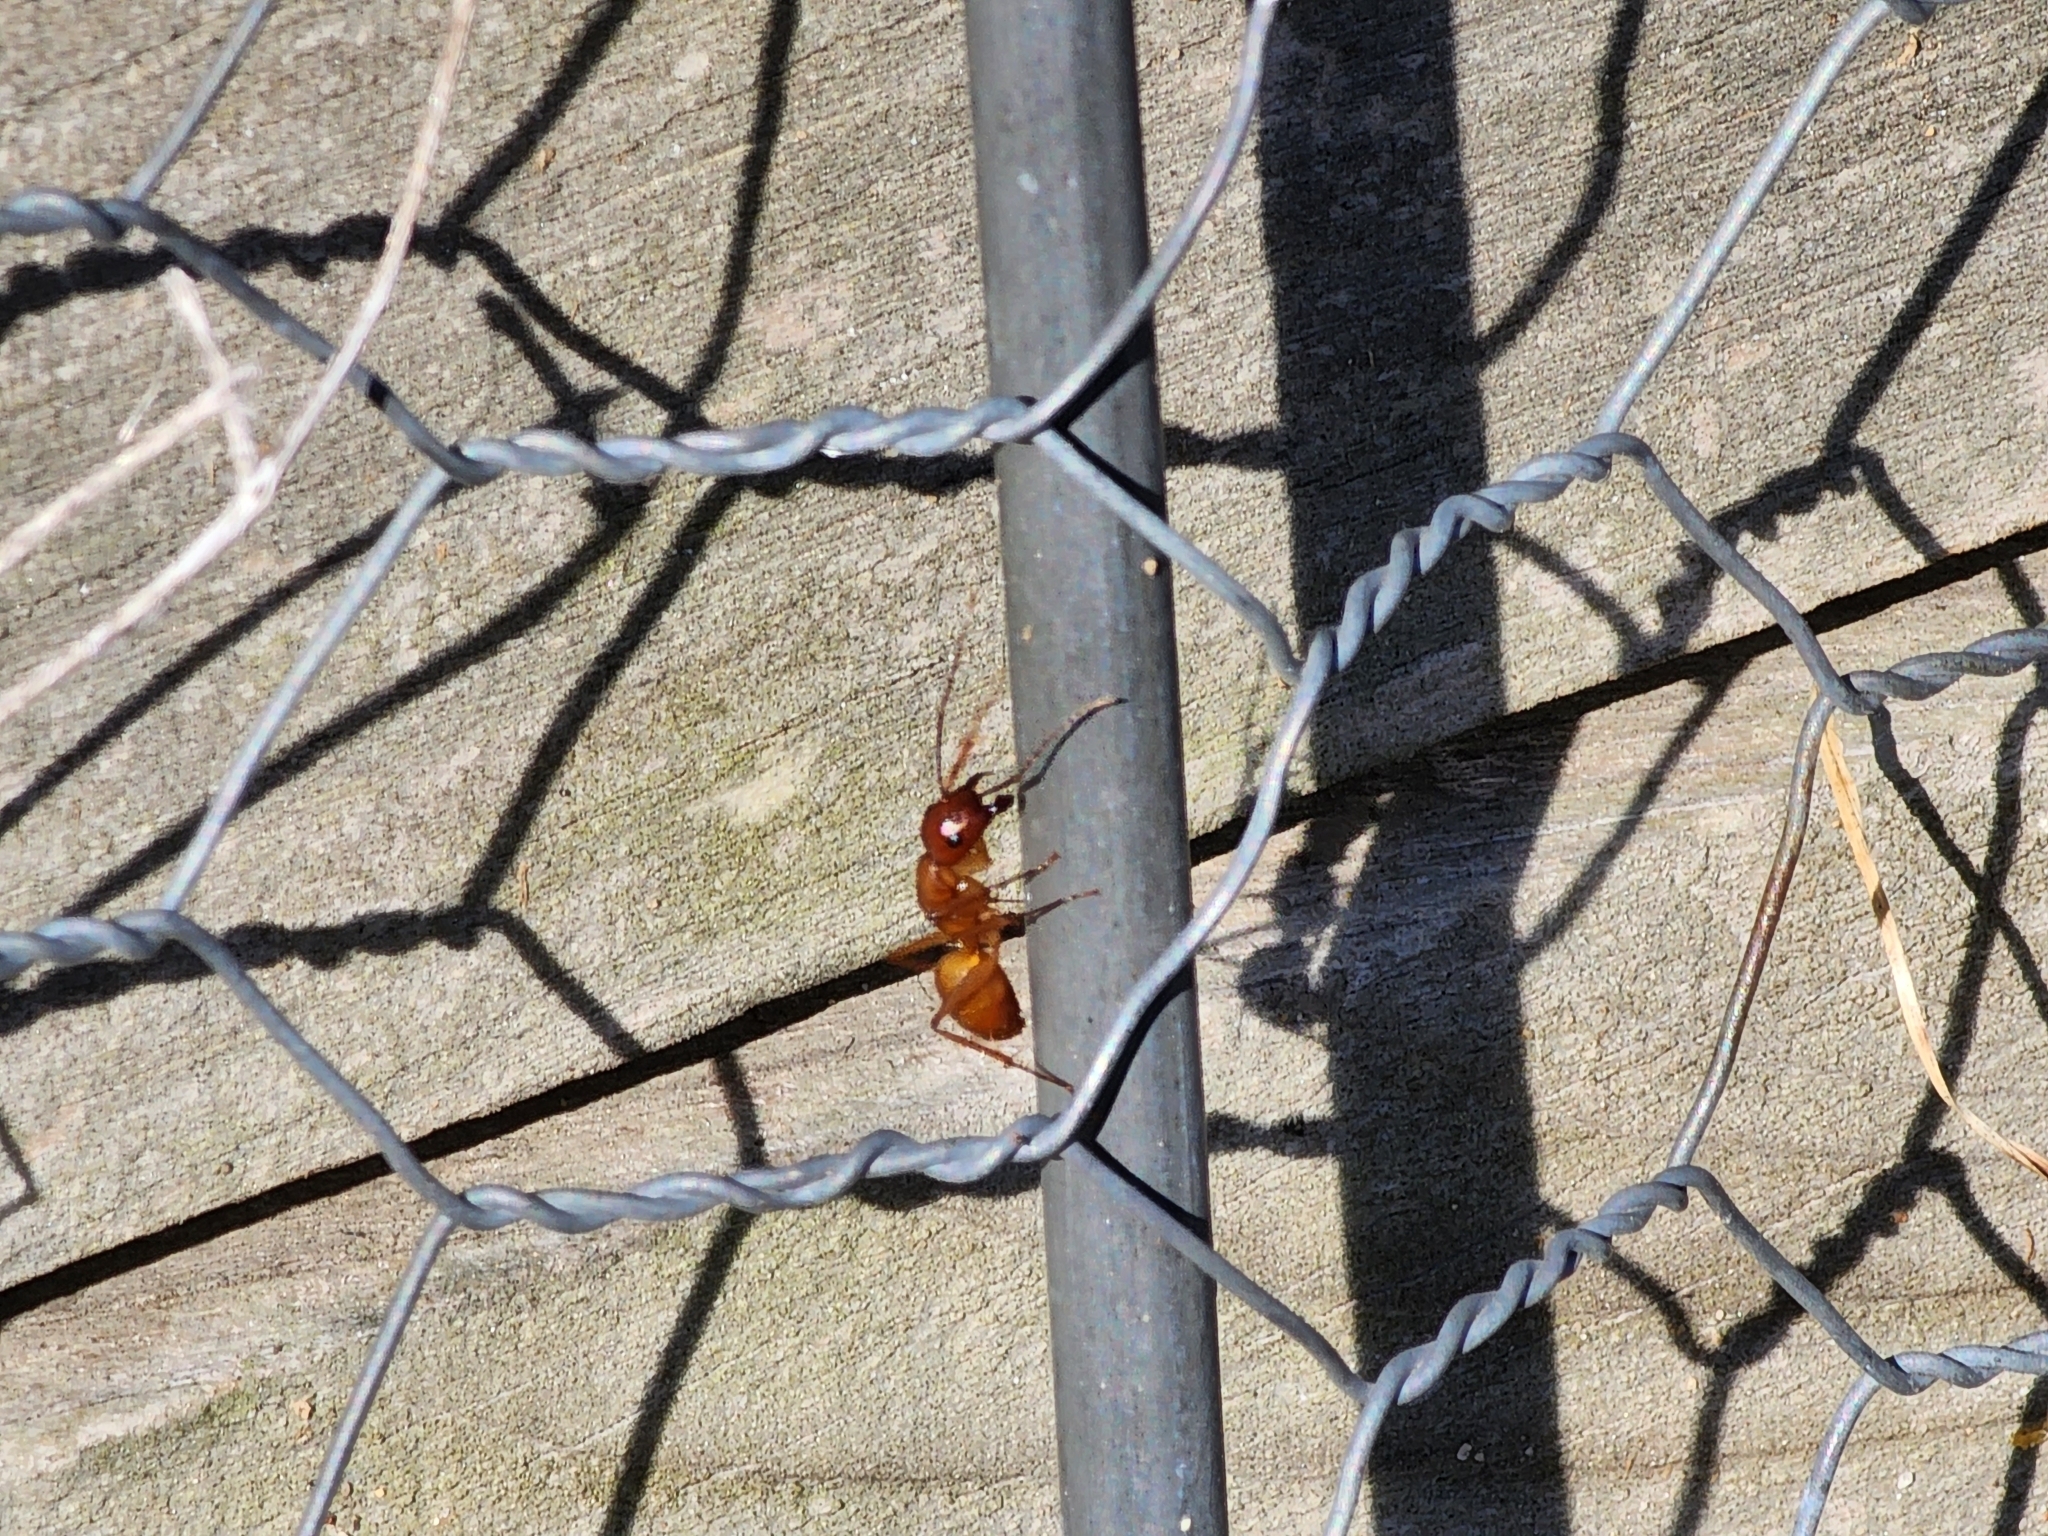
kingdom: Animalia
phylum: Arthropoda
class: Insecta
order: Hymenoptera
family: Formicidae
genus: Camponotus
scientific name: Camponotus castaneus
